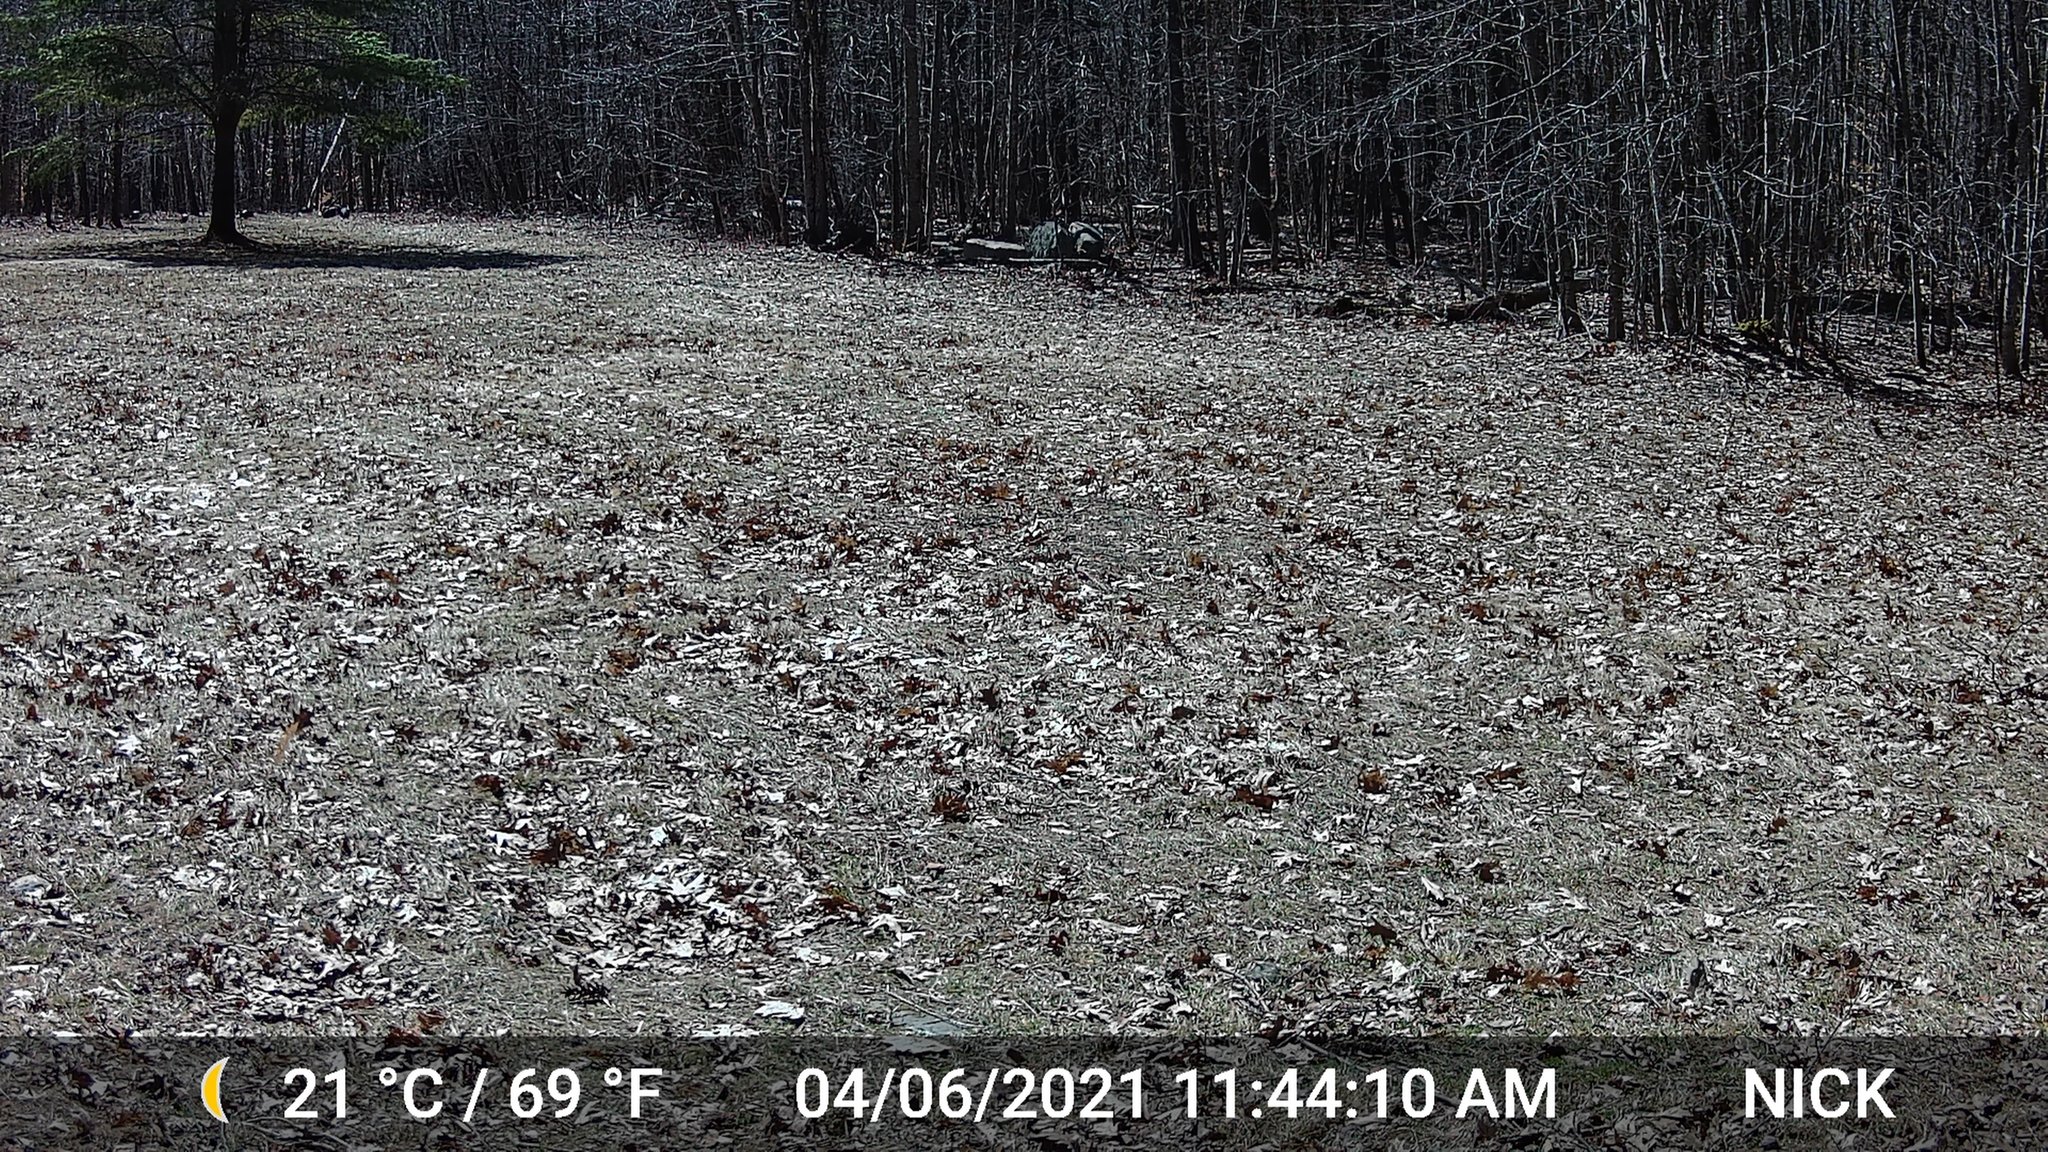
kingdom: Animalia
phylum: Chordata
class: Aves
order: Galliformes
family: Phasianidae
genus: Meleagris
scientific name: Meleagris gallopavo
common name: Wild turkey
